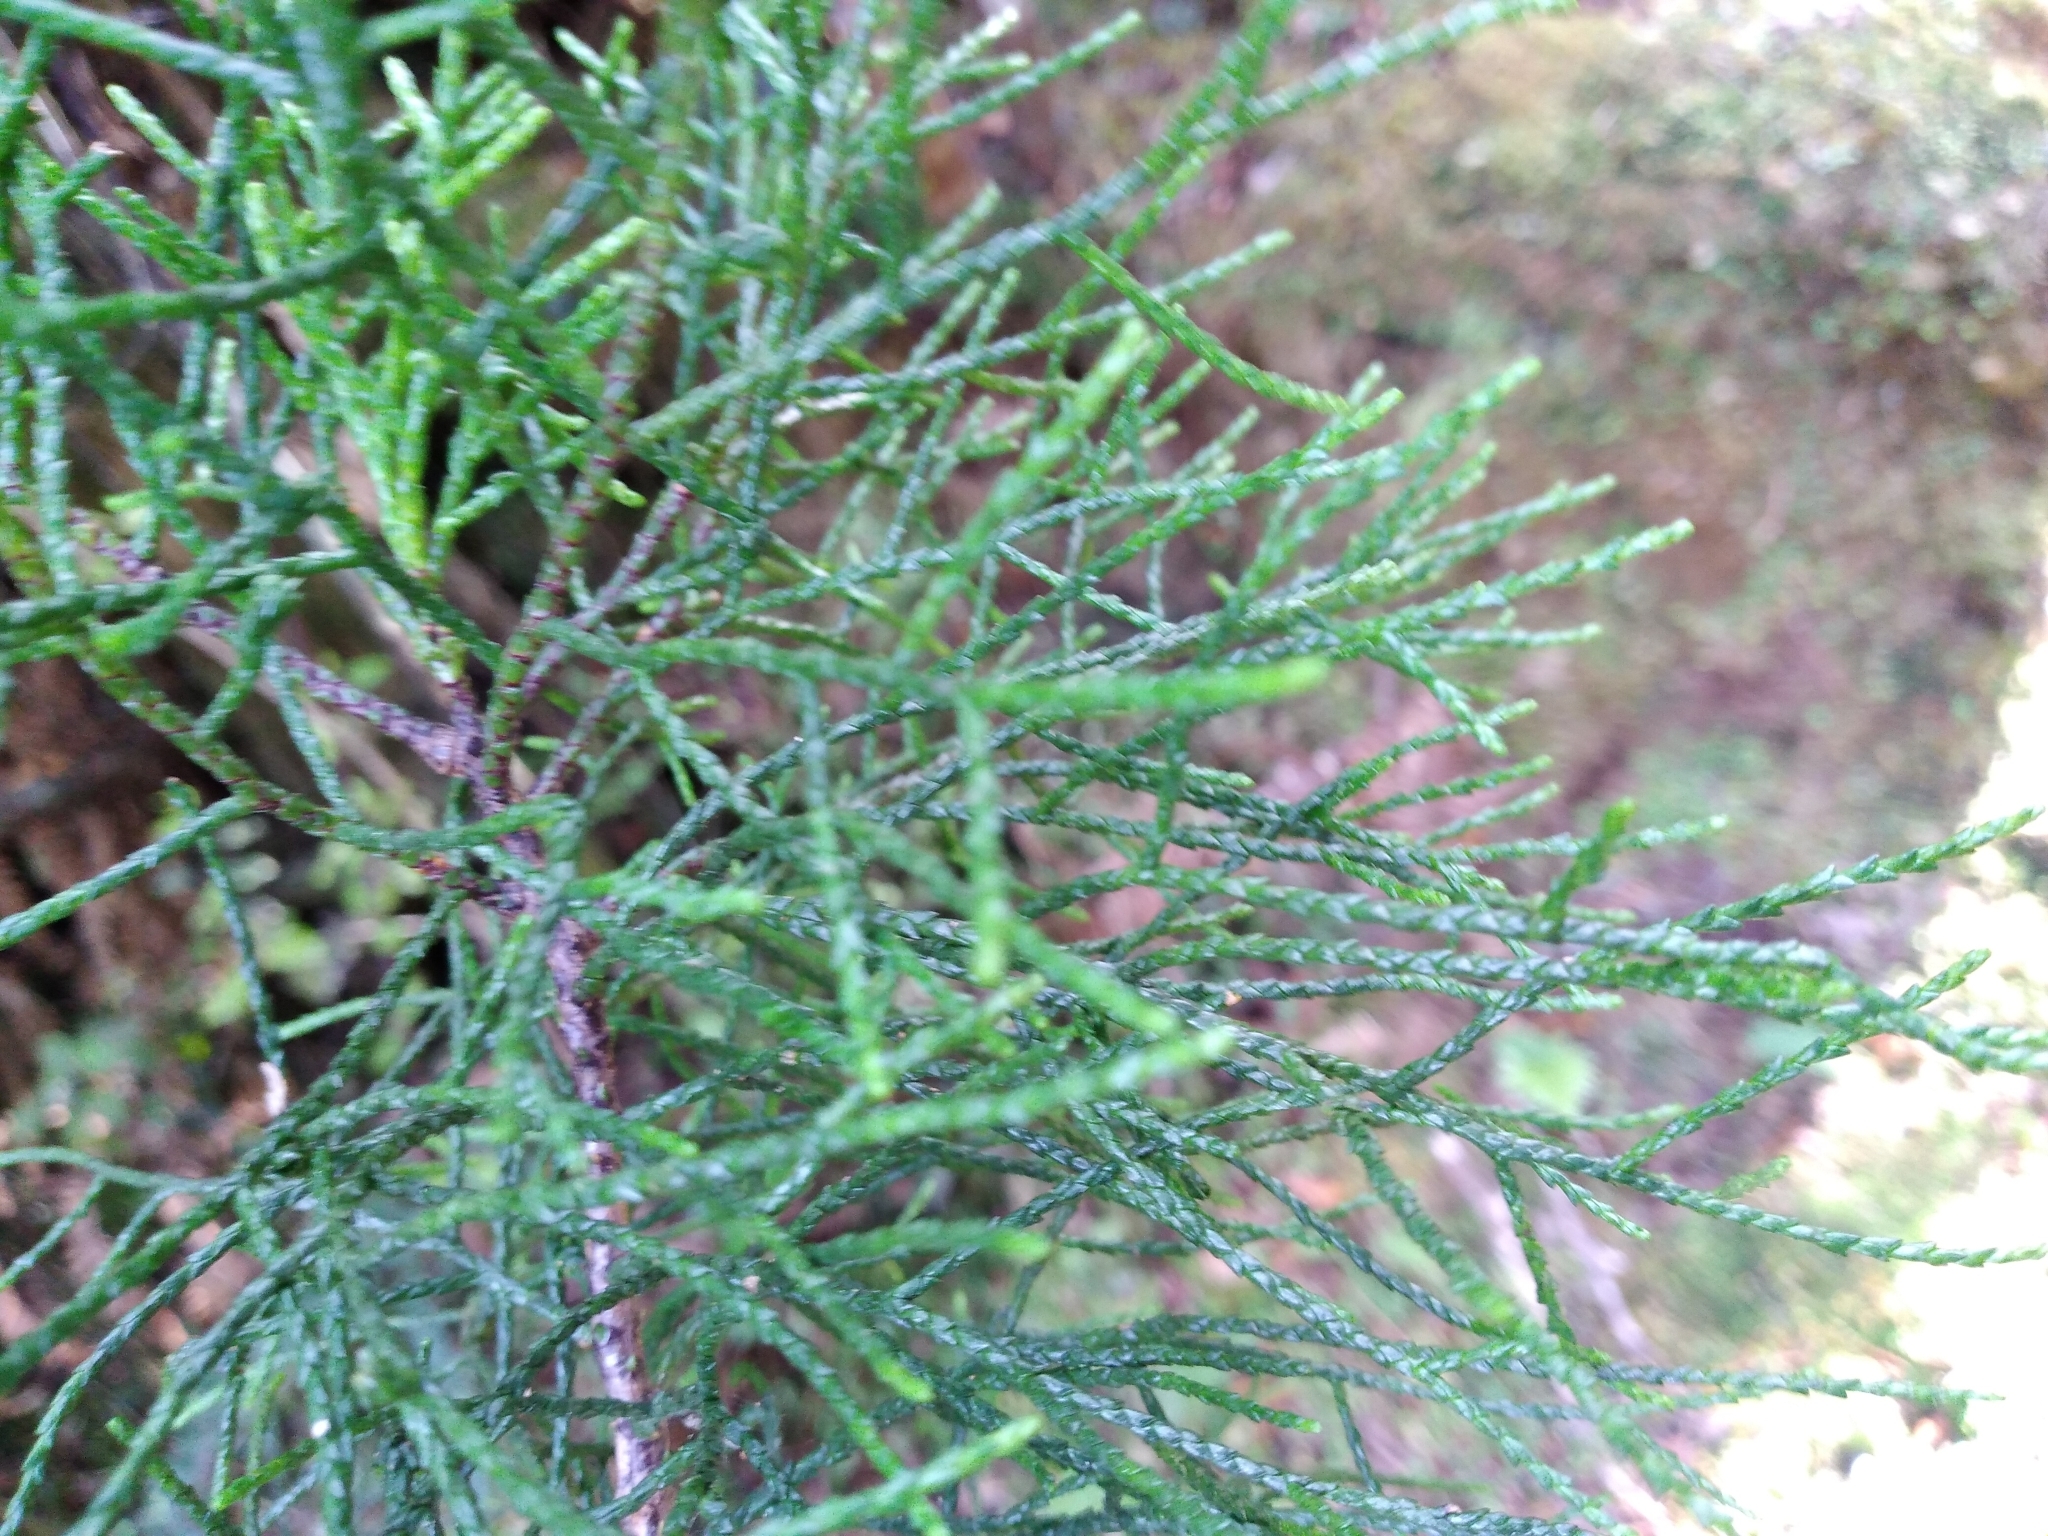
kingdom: Plantae
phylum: Tracheophyta
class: Pinopsida
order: Pinales
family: Podocarpaceae
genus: Manoao
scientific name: Manoao colensoi
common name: Silver pine
